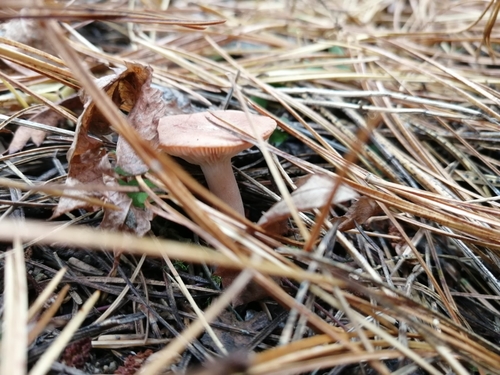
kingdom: Fungi
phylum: Basidiomycota
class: Agaricomycetes
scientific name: Agaricomycetes
